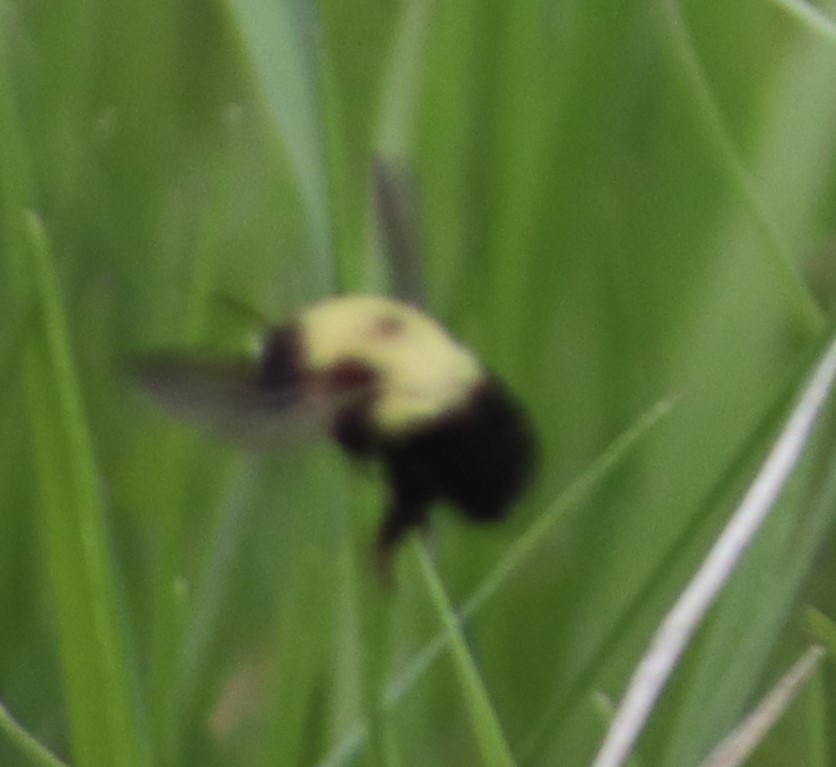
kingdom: Animalia
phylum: Arthropoda
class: Insecta
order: Hymenoptera
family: Apidae
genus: Bombus
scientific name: Bombus bimaculatus
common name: Two-spotted bumble bee
